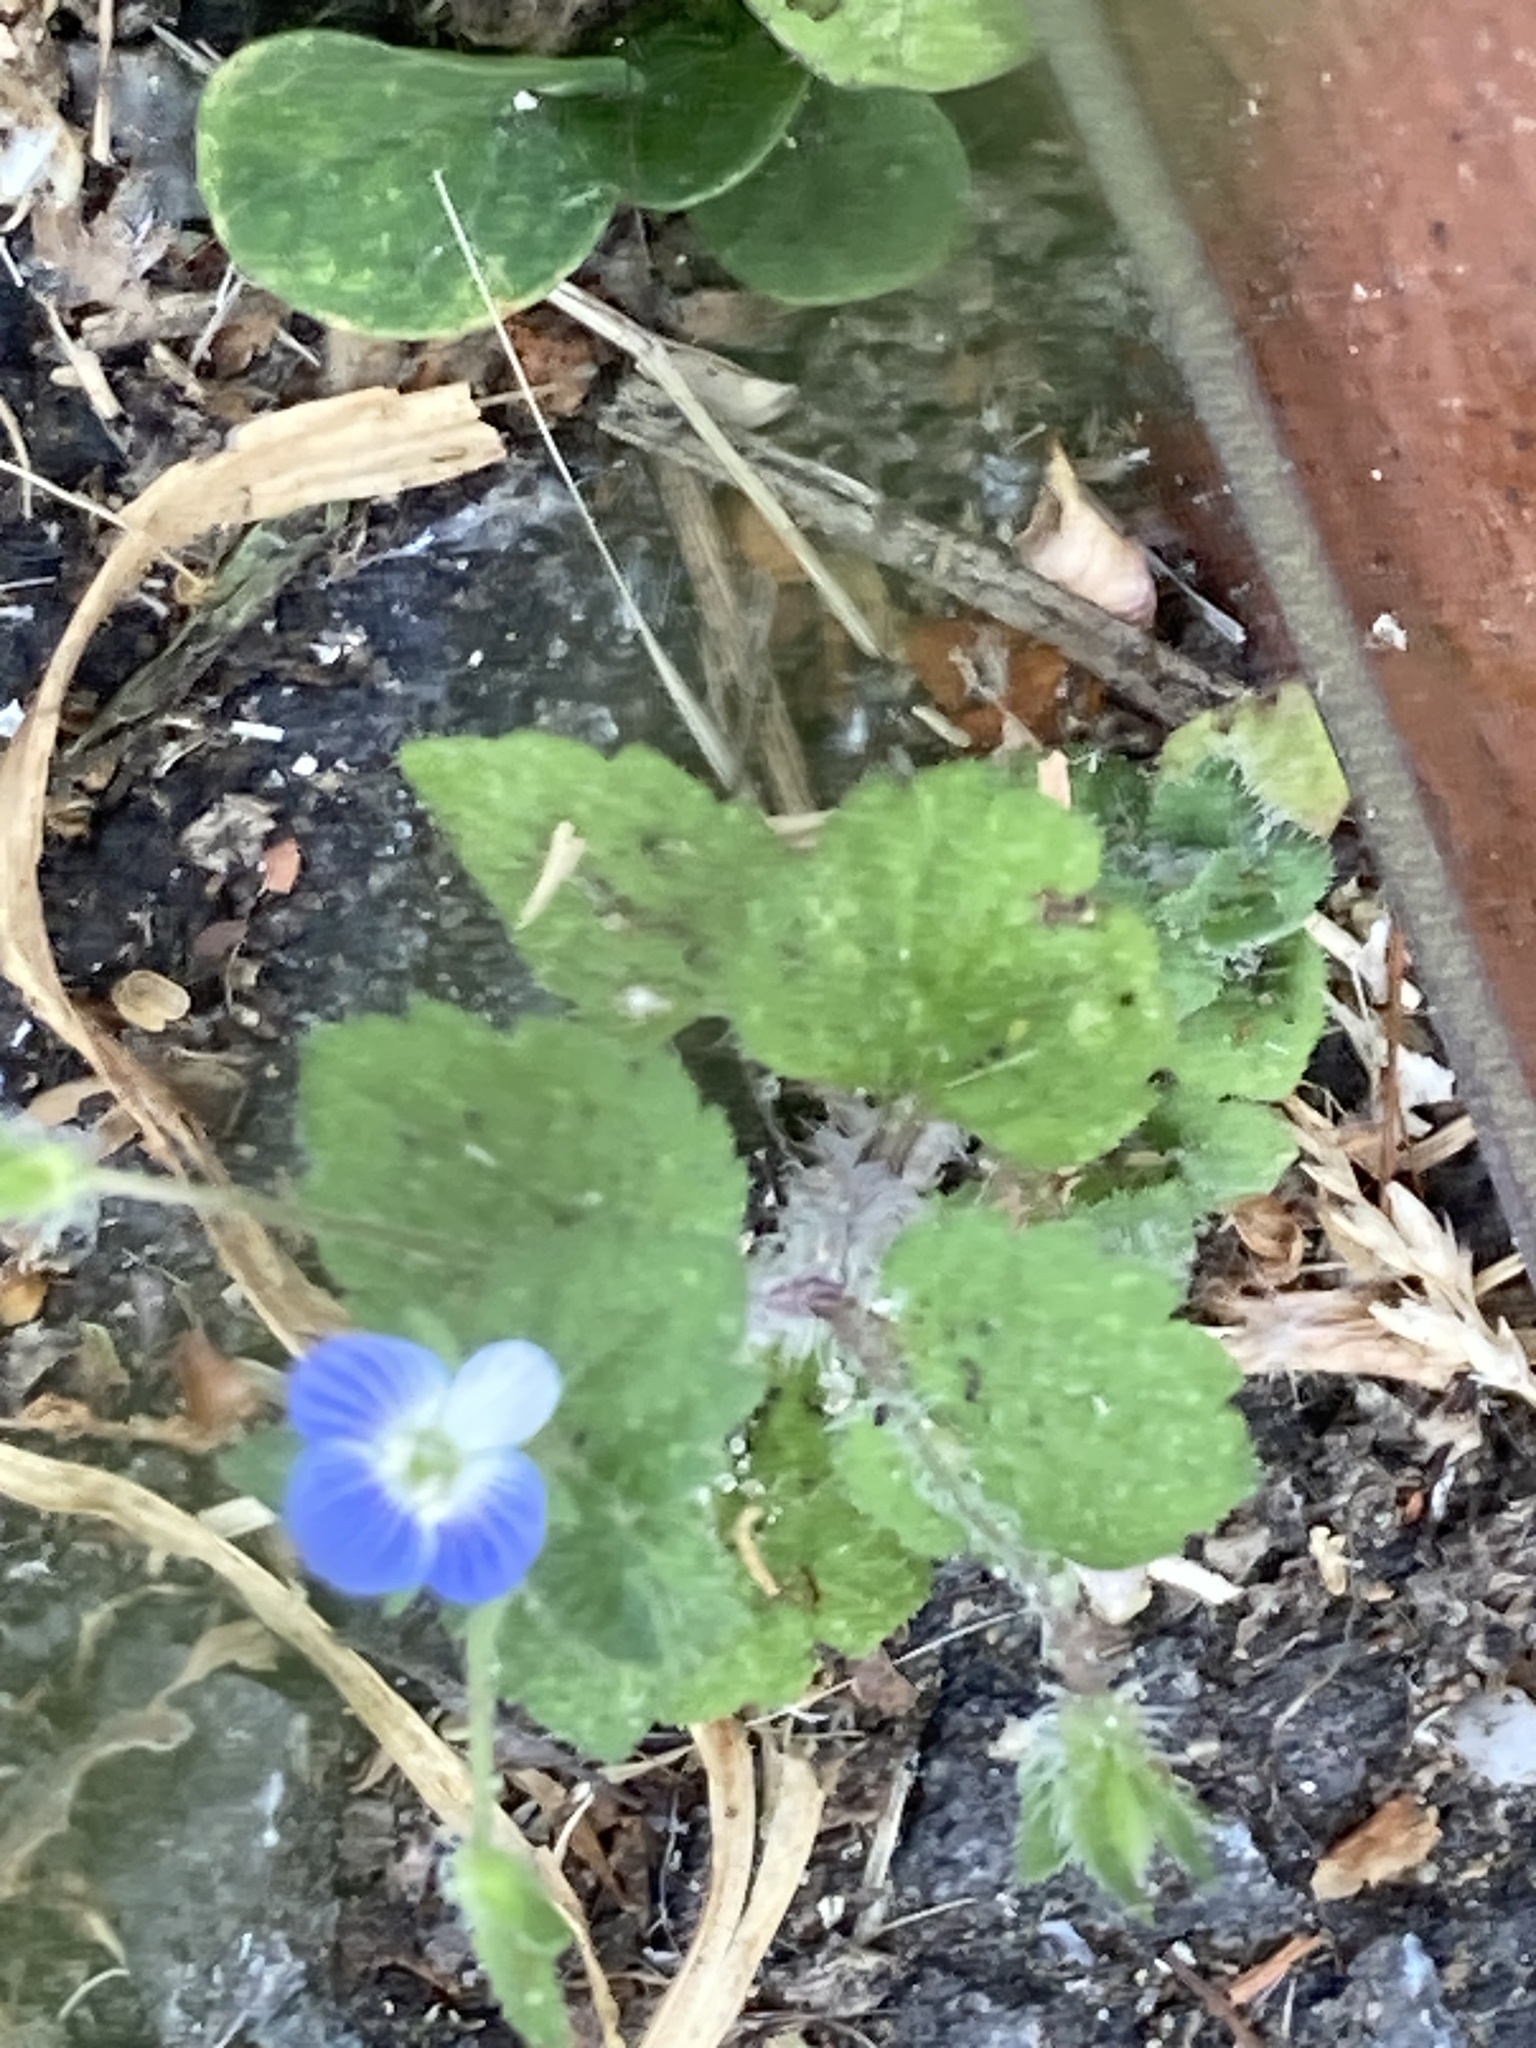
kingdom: Plantae
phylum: Tracheophyta
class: Magnoliopsida
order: Lamiales
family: Plantaginaceae
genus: Veronica
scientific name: Veronica persica
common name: Common field-speedwell
